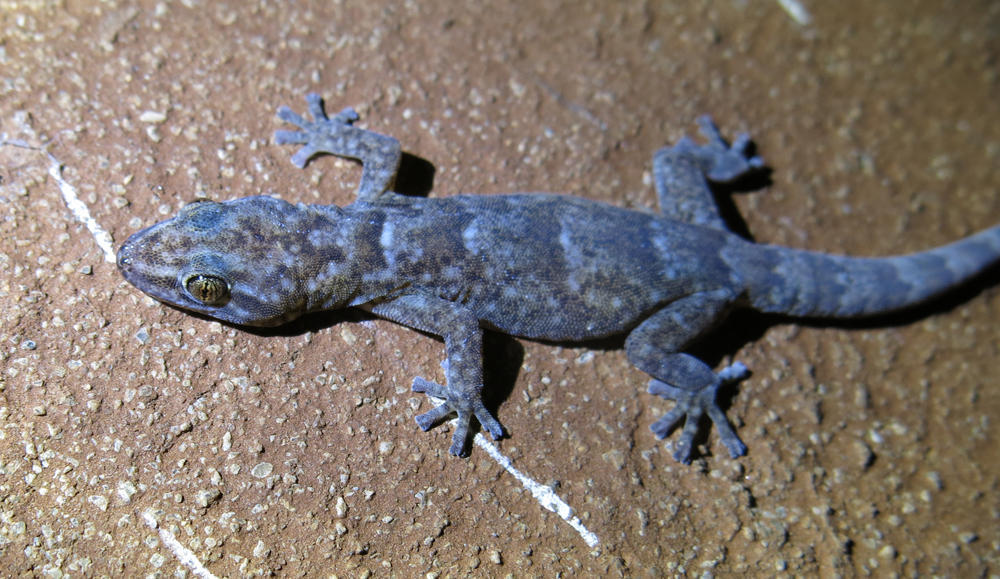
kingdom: Animalia
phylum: Chordata
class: Squamata
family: Gekkonidae
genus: Afroedura
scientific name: Afroedura pienaari
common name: Pienaar’s rock gecko
